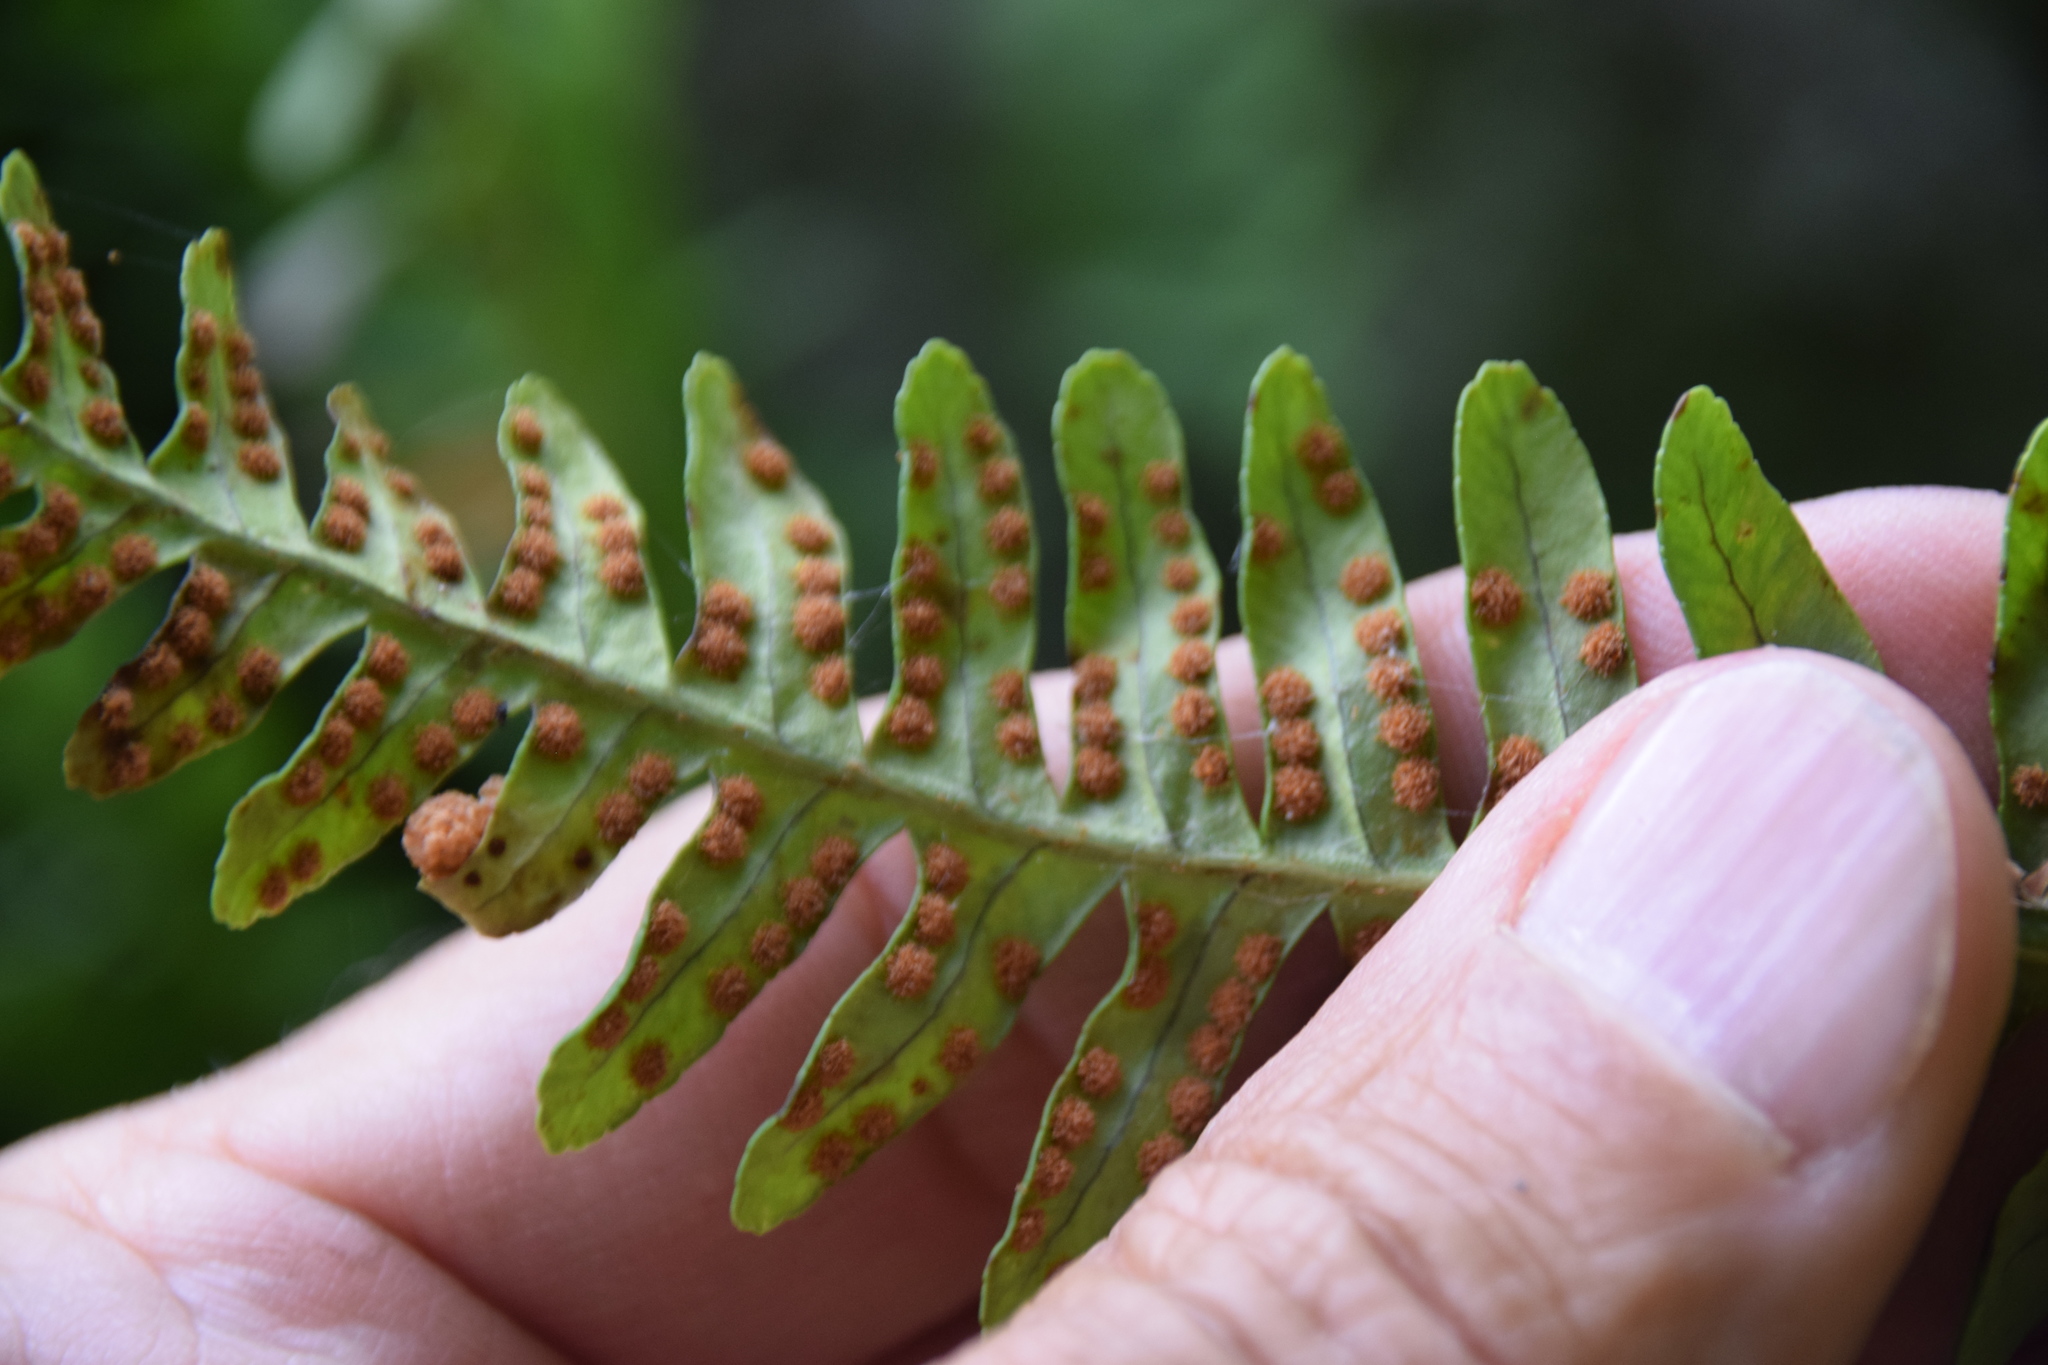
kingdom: Plantae
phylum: Tracheophyta
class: Polypodiopsida
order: Polypodiales
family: Polypodiaceae
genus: Polypodium
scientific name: Polypodium virginianum
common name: American wall fern
